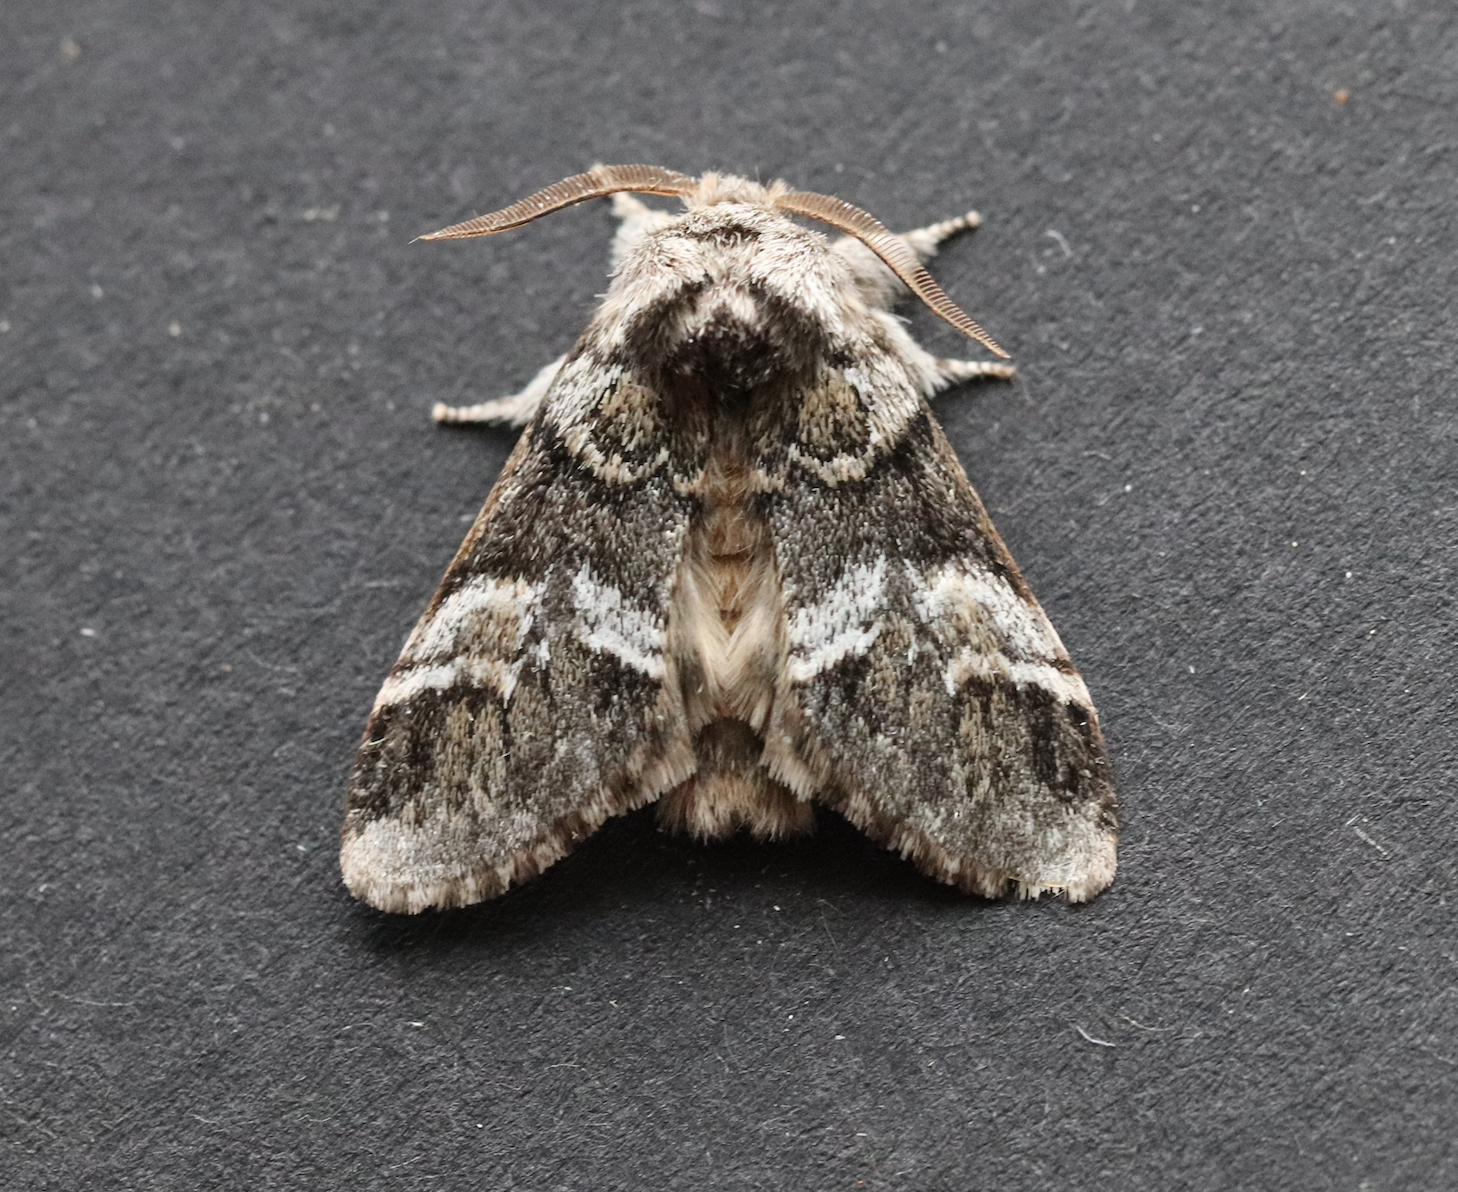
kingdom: Animalia
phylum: Arthropoda
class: Insecta
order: Lepidoptera
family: Notodontidae
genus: Drymonia
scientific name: Drymonia dodonaea
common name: Marbled brown
